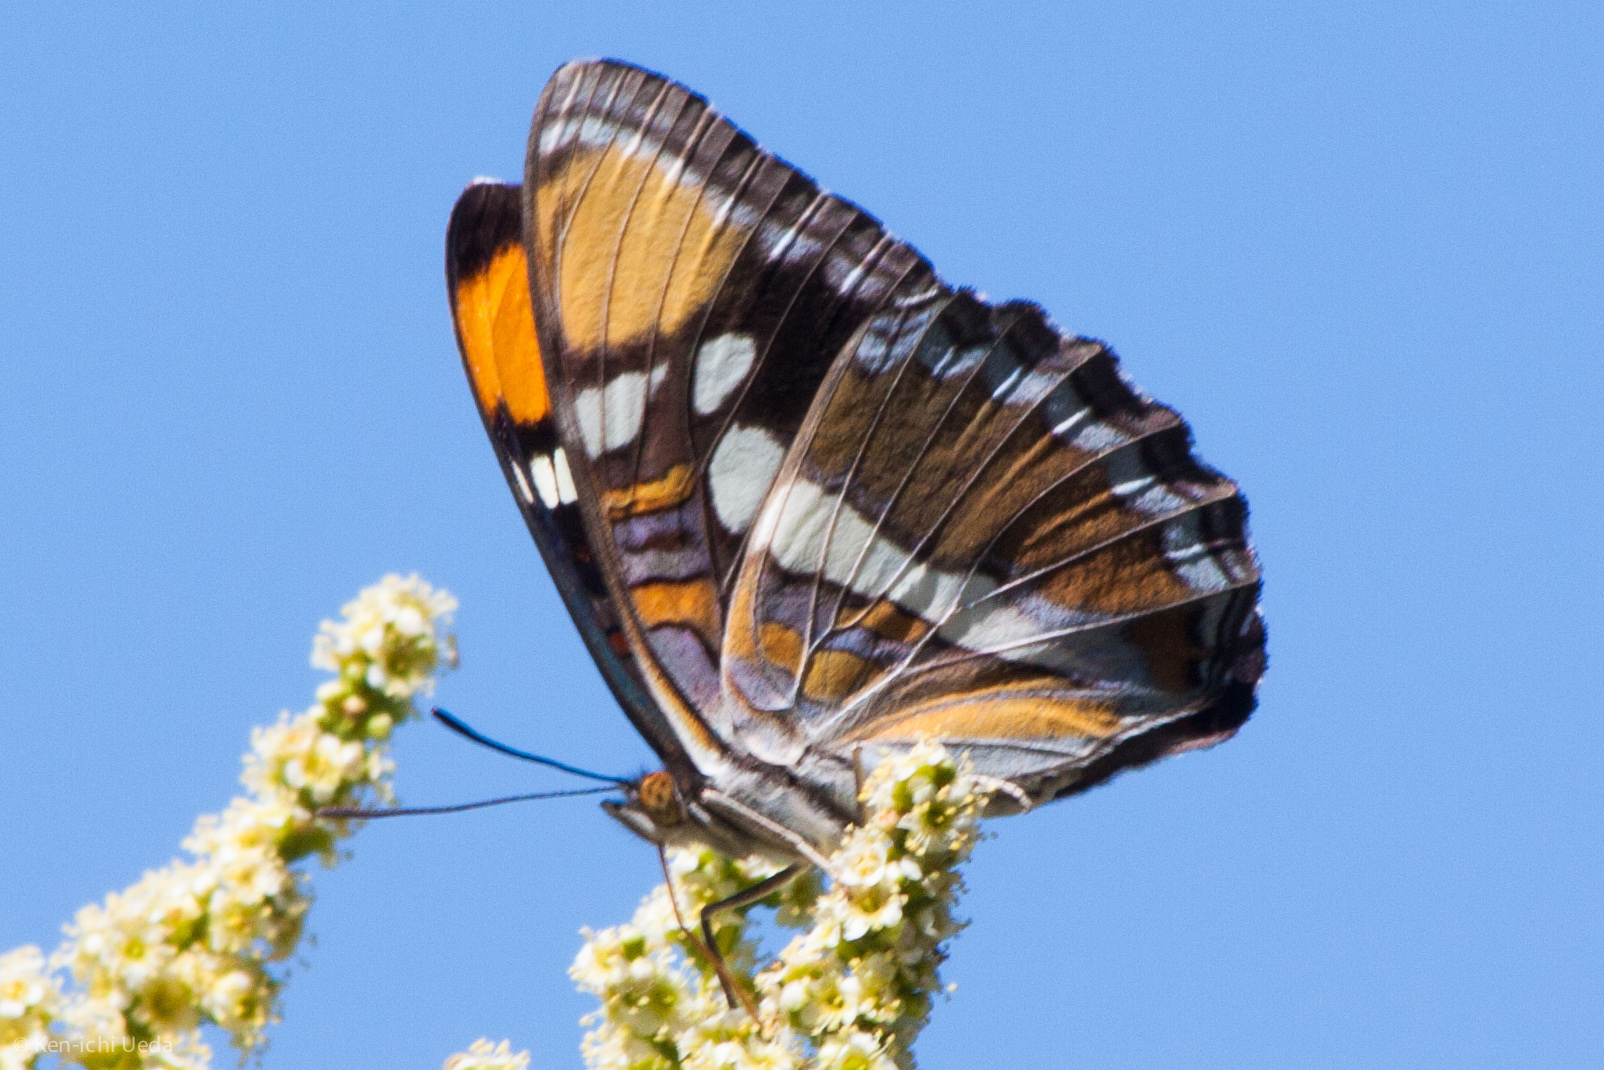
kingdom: Animalia
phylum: Arthropoda
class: Insecta
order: Lepidoptera
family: Nymphalidae
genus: Limenitis
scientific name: Limenitis bredowii
